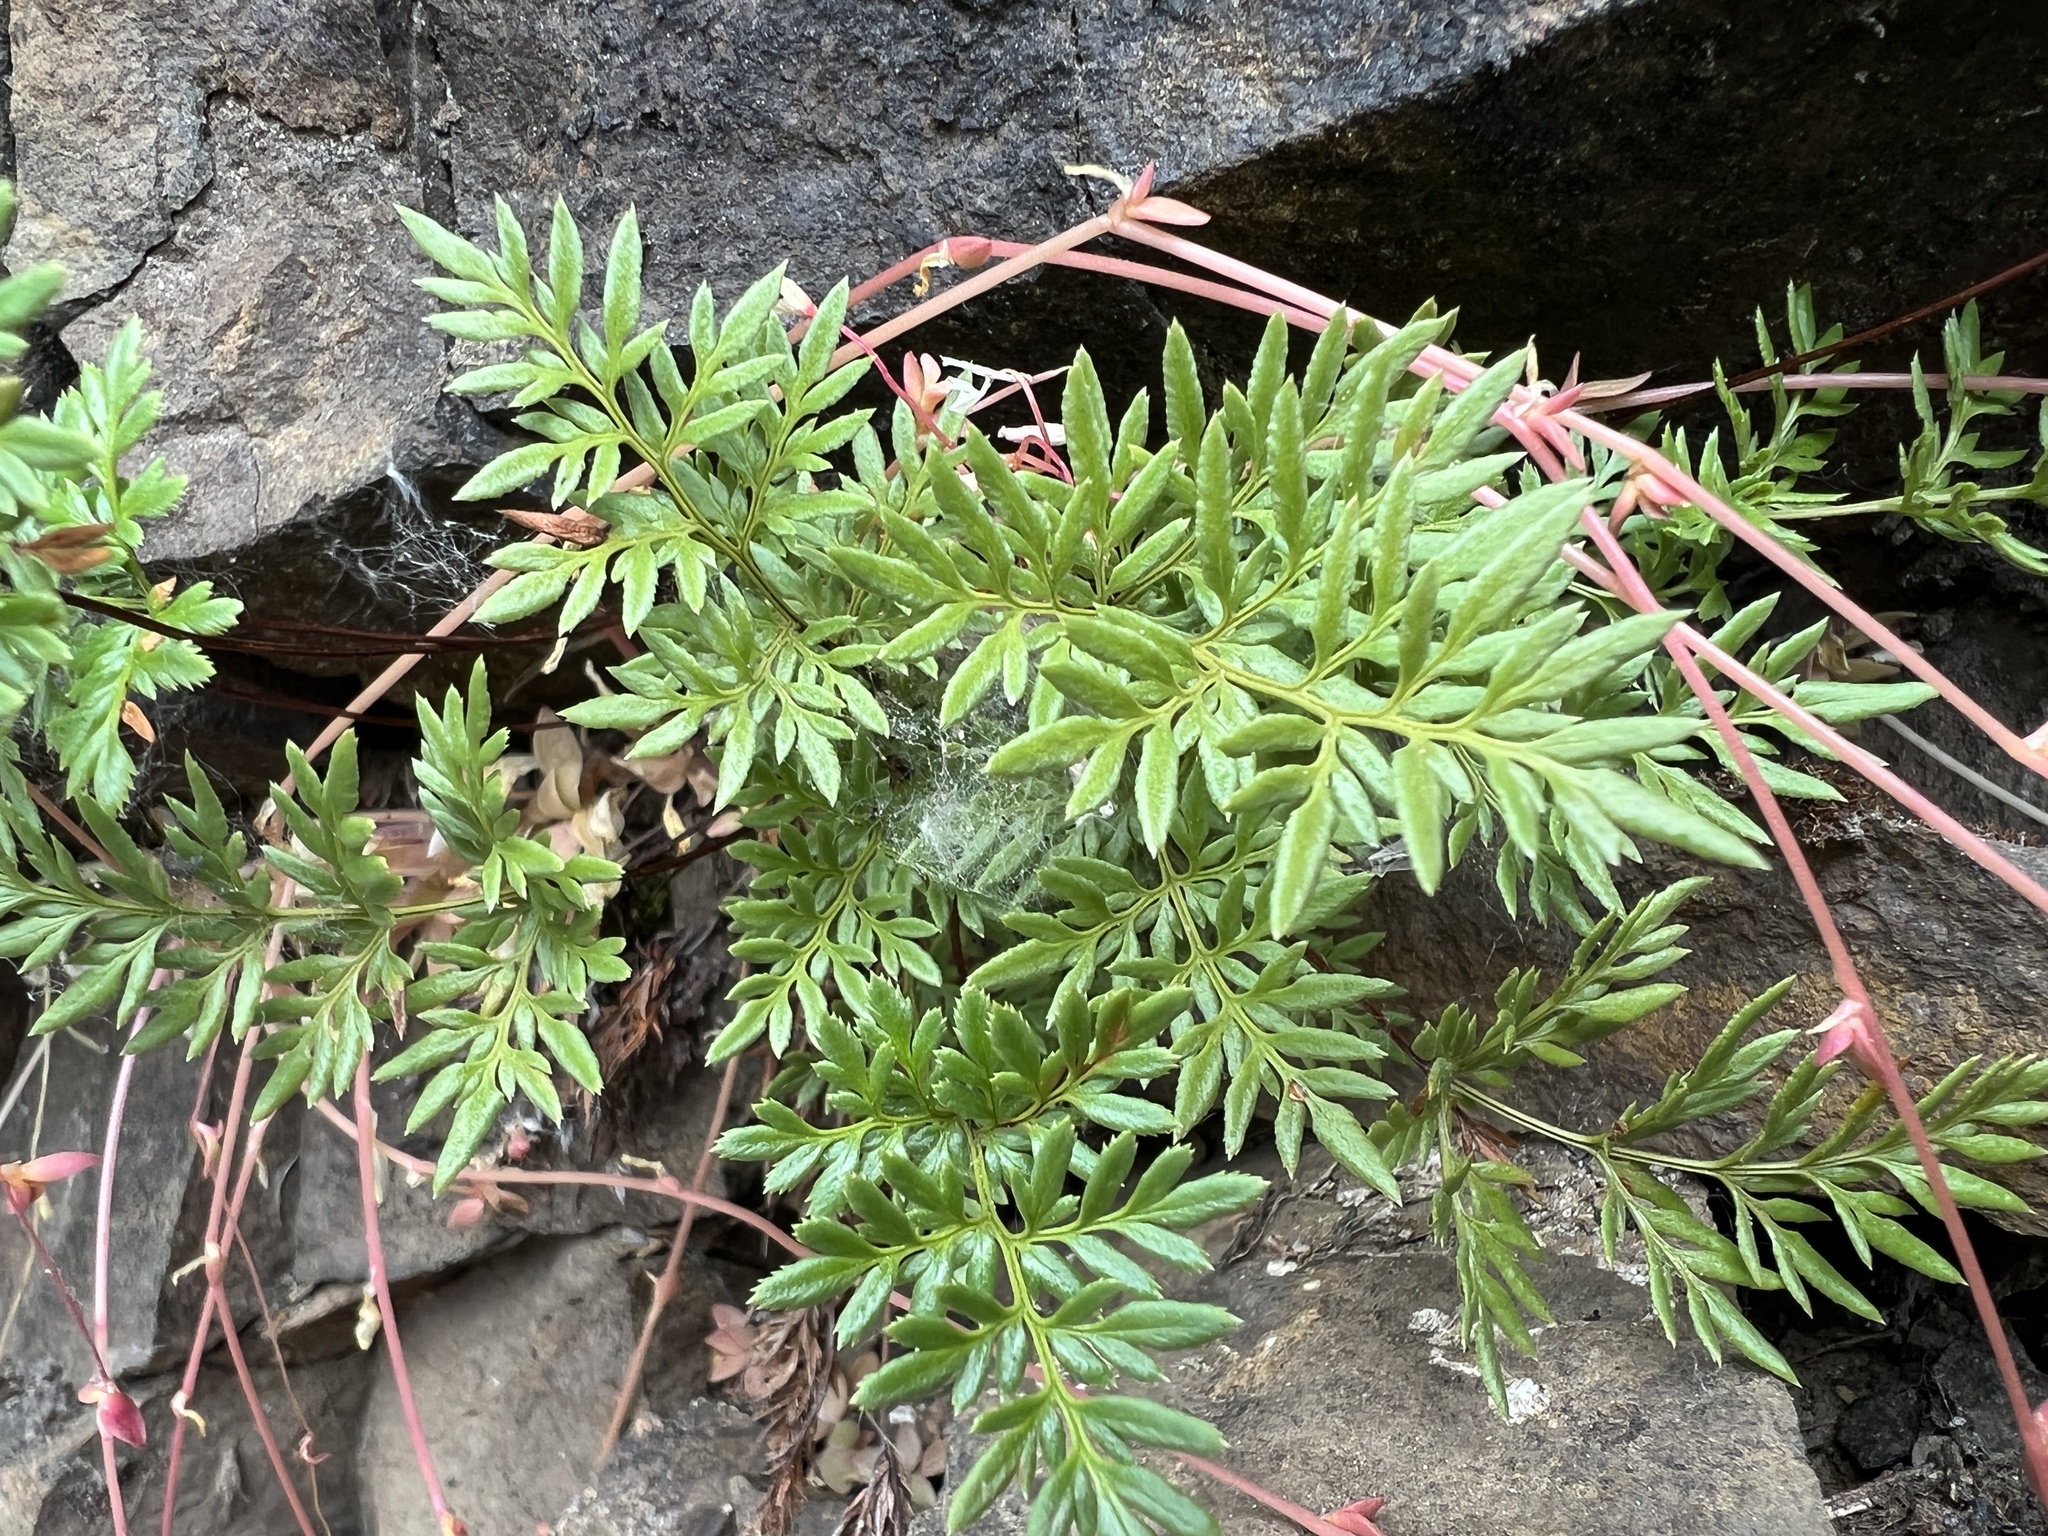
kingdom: Plantae
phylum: Tracheophyta
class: Polypodiopsida
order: Polypodiales
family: Pteridaceae
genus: Aspidotis
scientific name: Aspidotis densa
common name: Indian's dream
